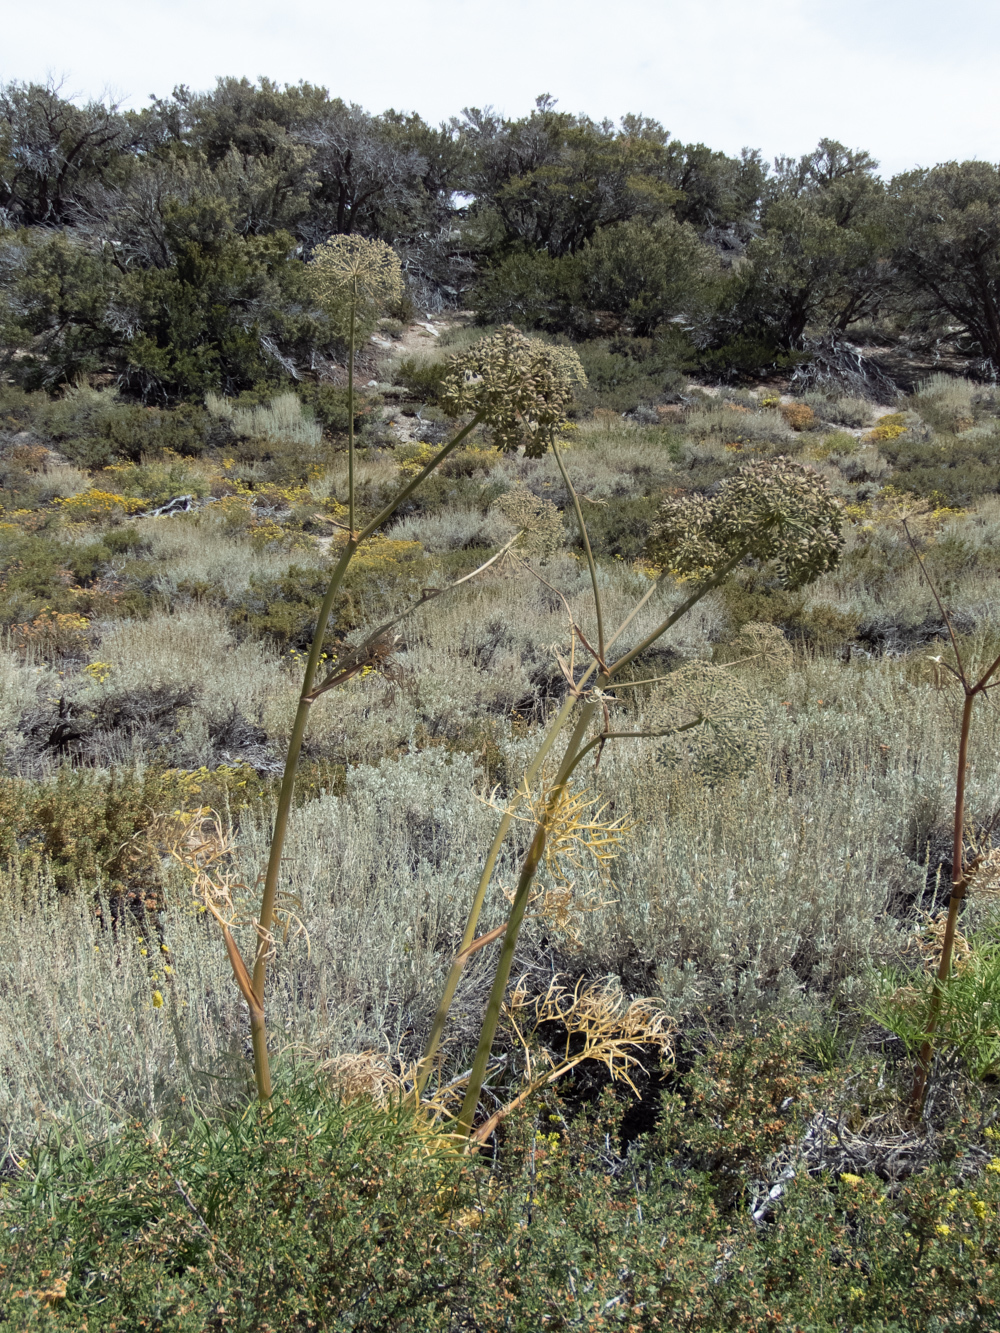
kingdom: Plantae
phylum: Tracheophyta
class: Magnoliopsida
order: Apiales
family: Apiaceae
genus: Angelica
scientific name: Angelica lineariloba
